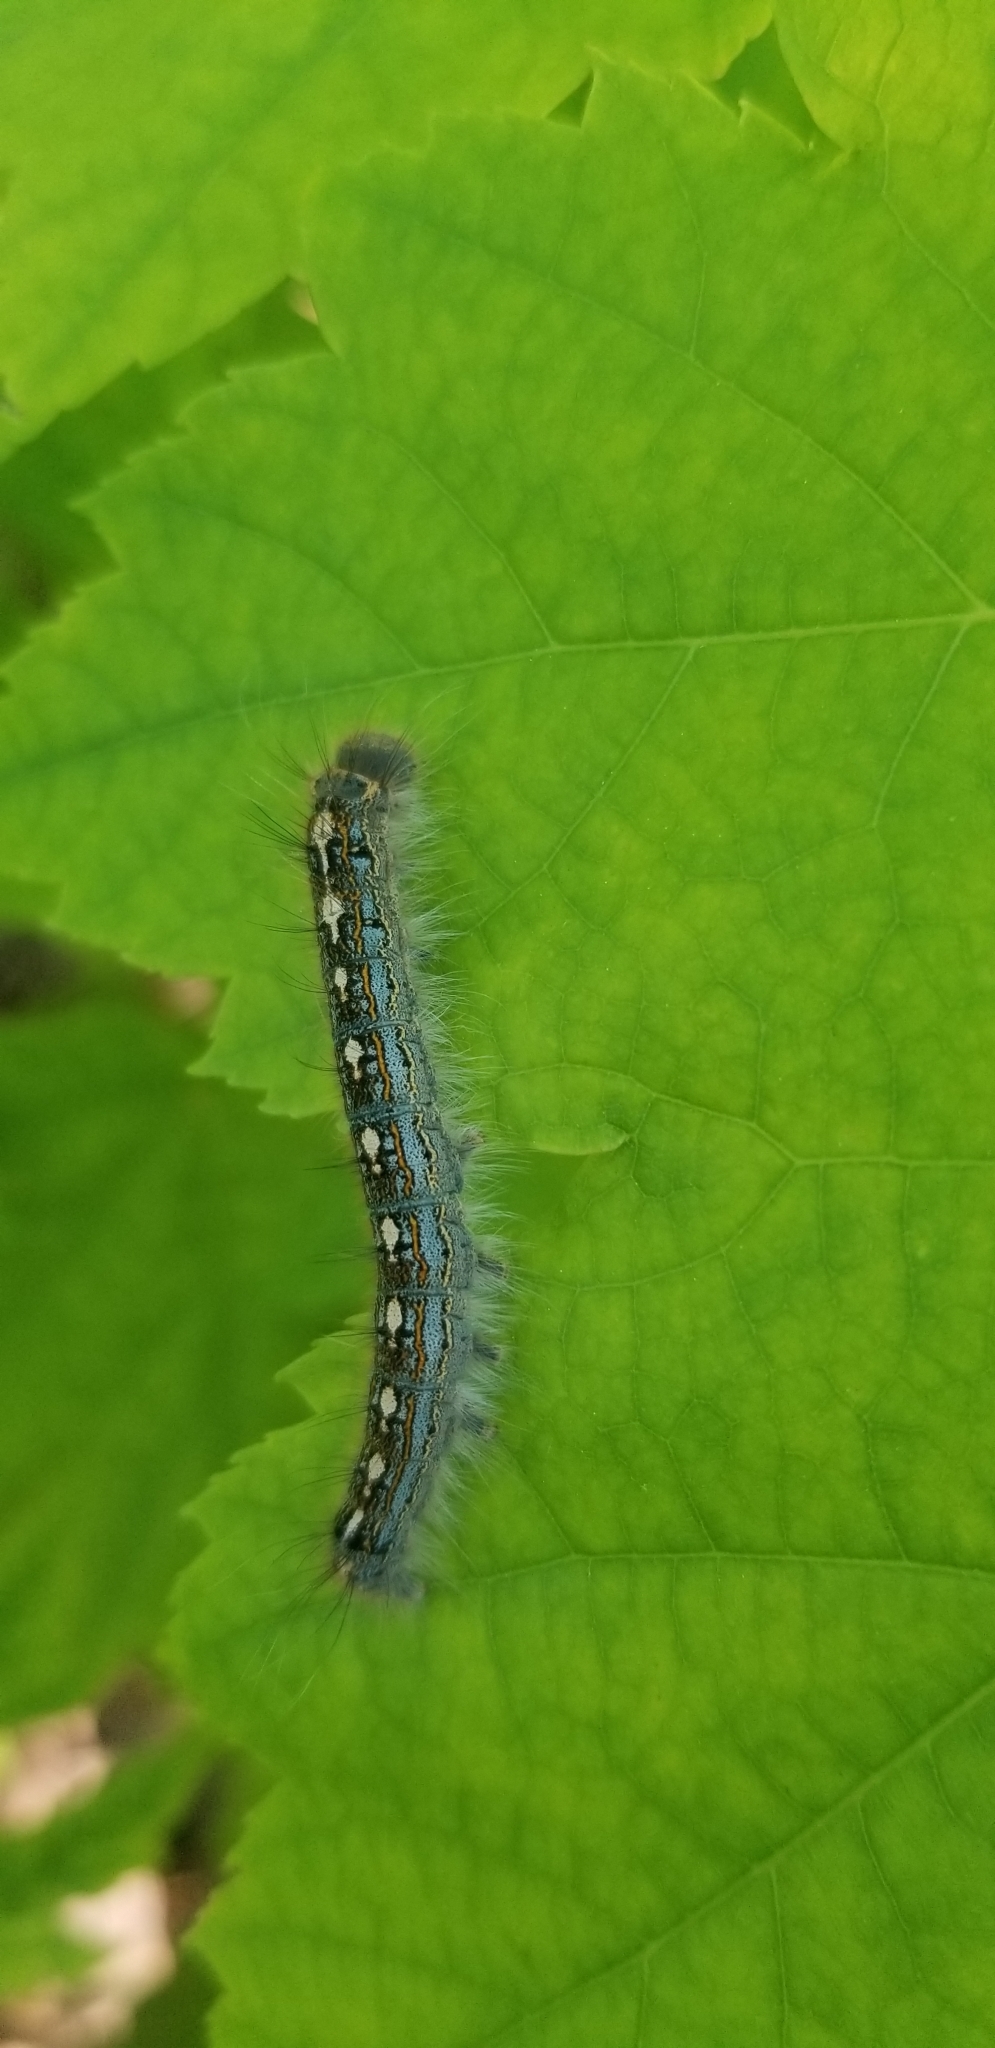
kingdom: Animalia
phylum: Arthropoda
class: Insecta
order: Lepidoptera
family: Lasiocampidae
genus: Malacosoma
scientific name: Malacosoma disstria
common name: Forest tent caterpillar
